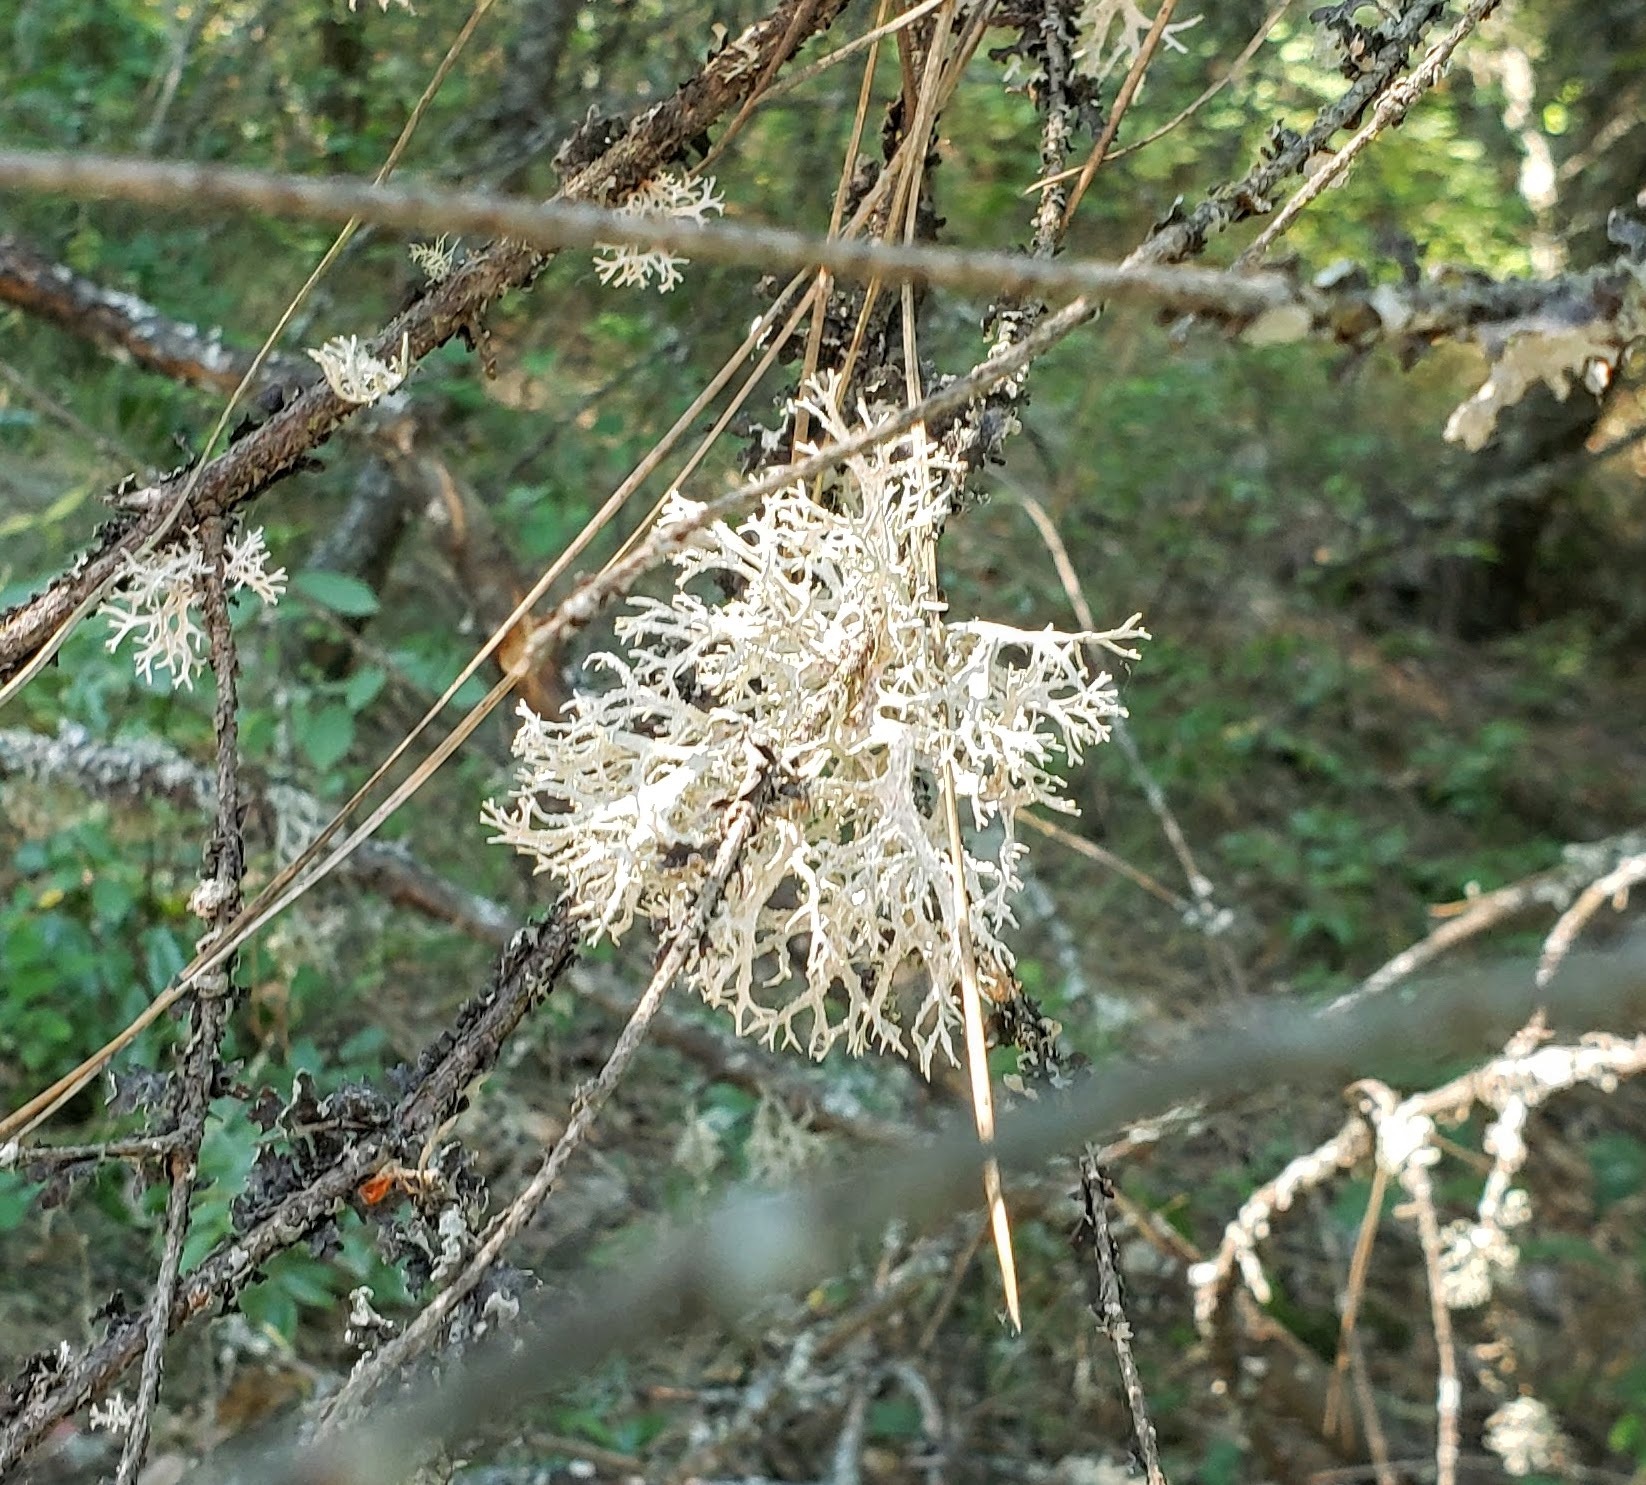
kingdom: Fungi
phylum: Ascomycota
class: Lecanoromycetes
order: Lecanorales
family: Parmeliaceae
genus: Evernia
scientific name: Evernia prunastri
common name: Oak moss
